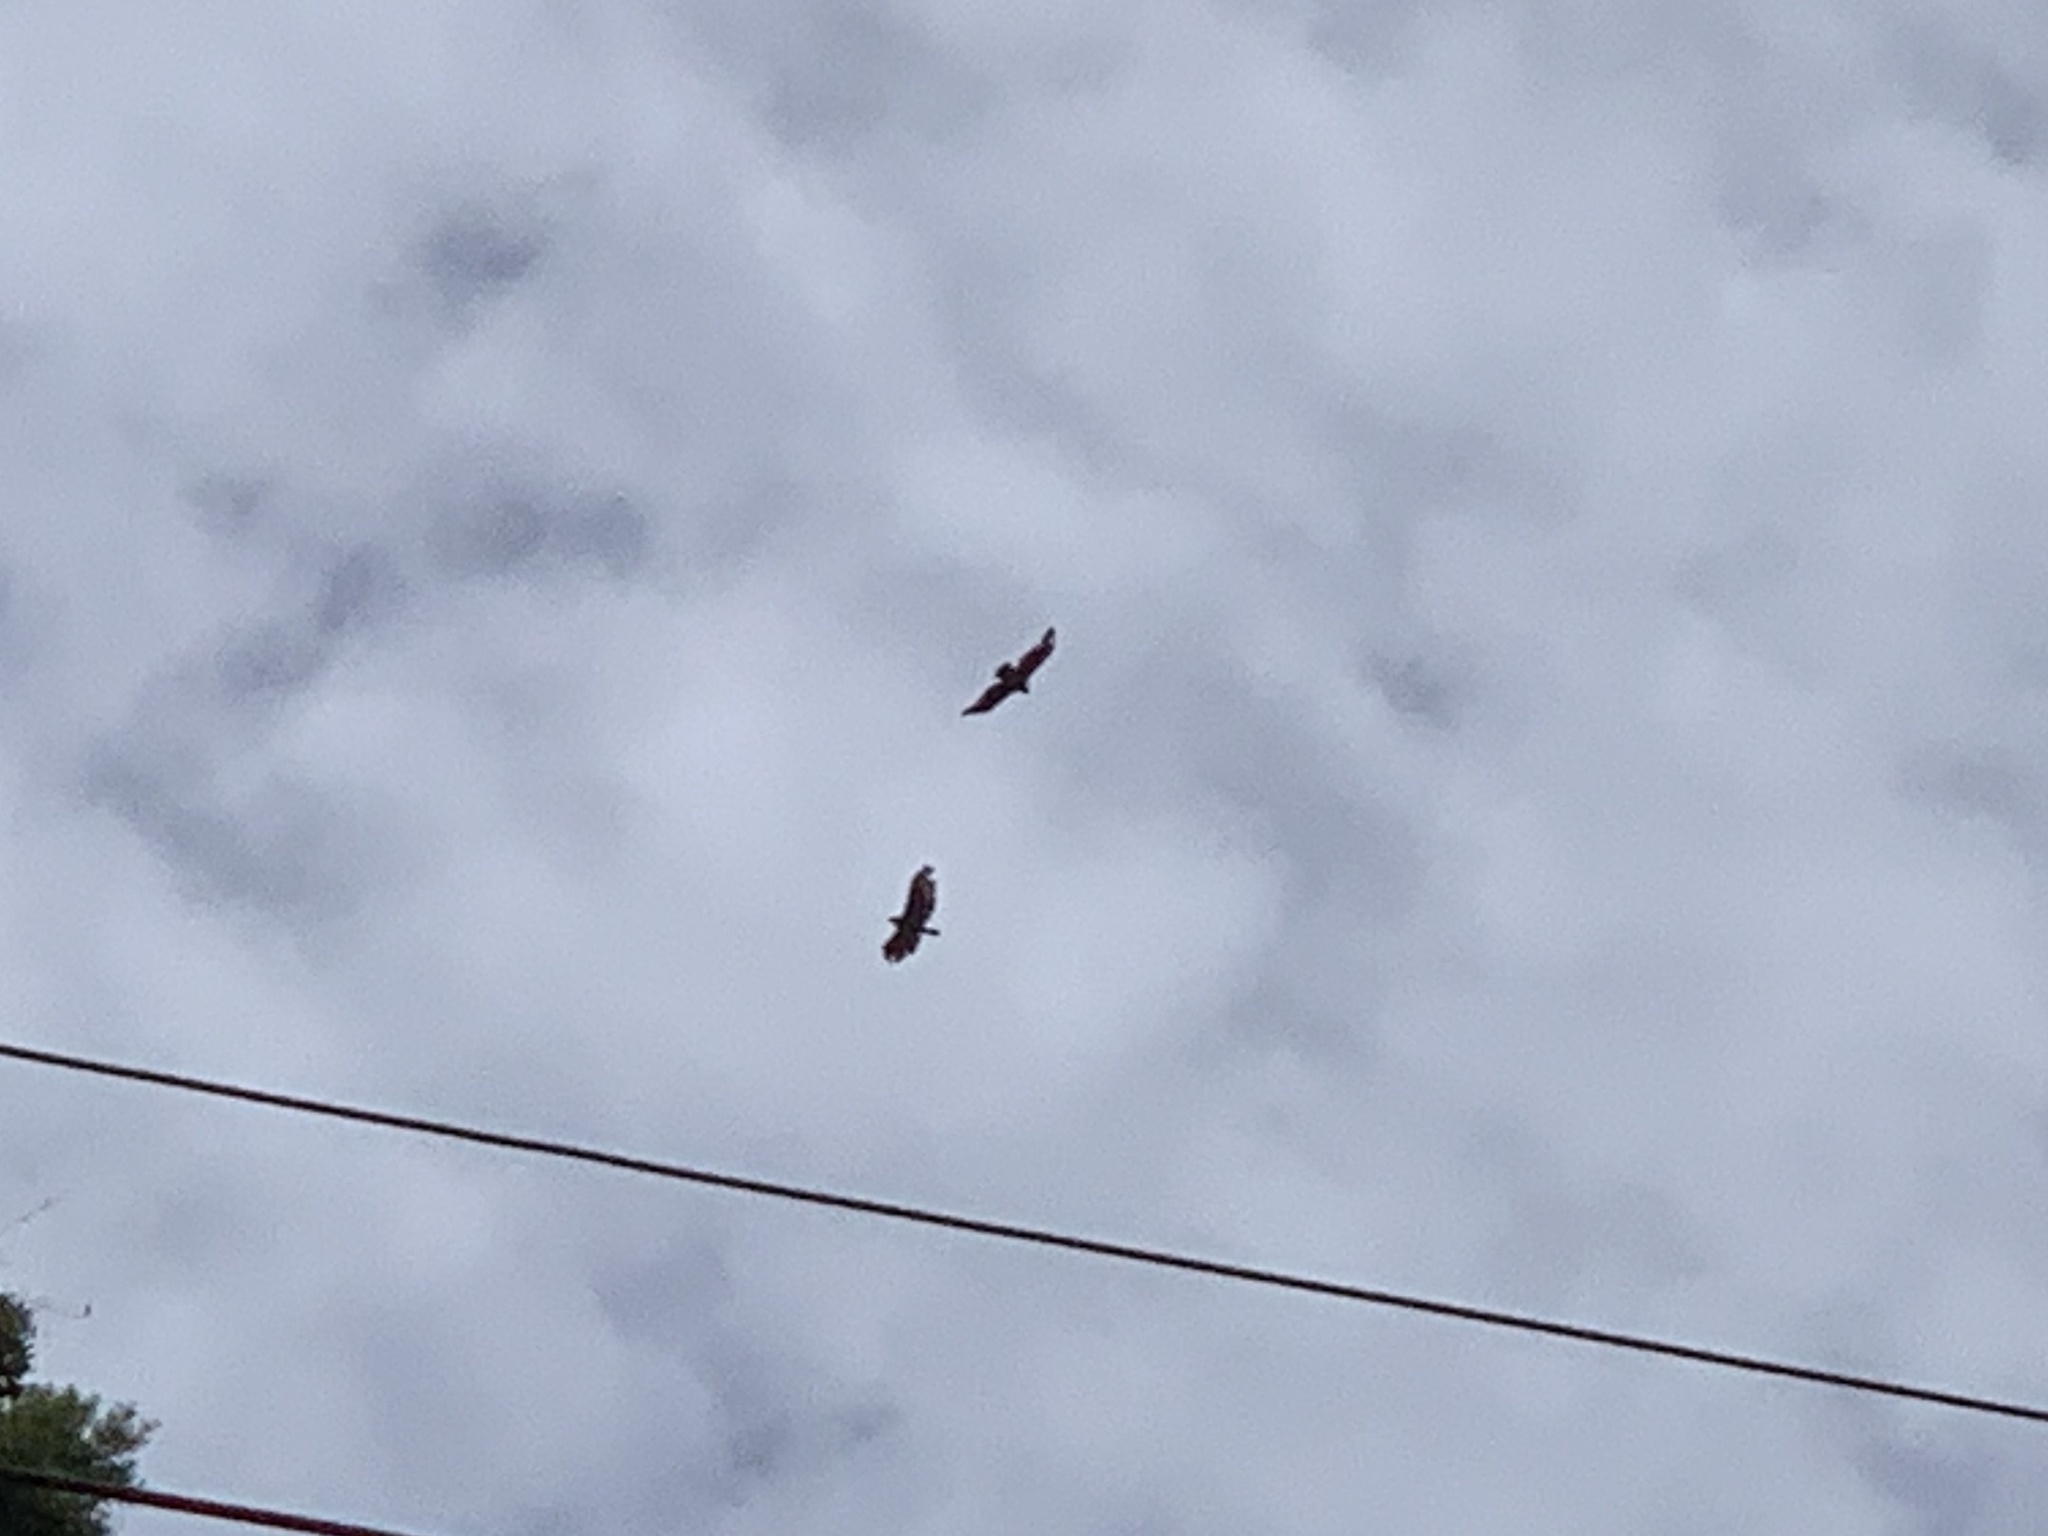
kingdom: Animalia
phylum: Chordata
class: Aves
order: Accipitriformes
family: Accipitridae
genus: Spilornis
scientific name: Spilornis cheela
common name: Crested serpent eagle
